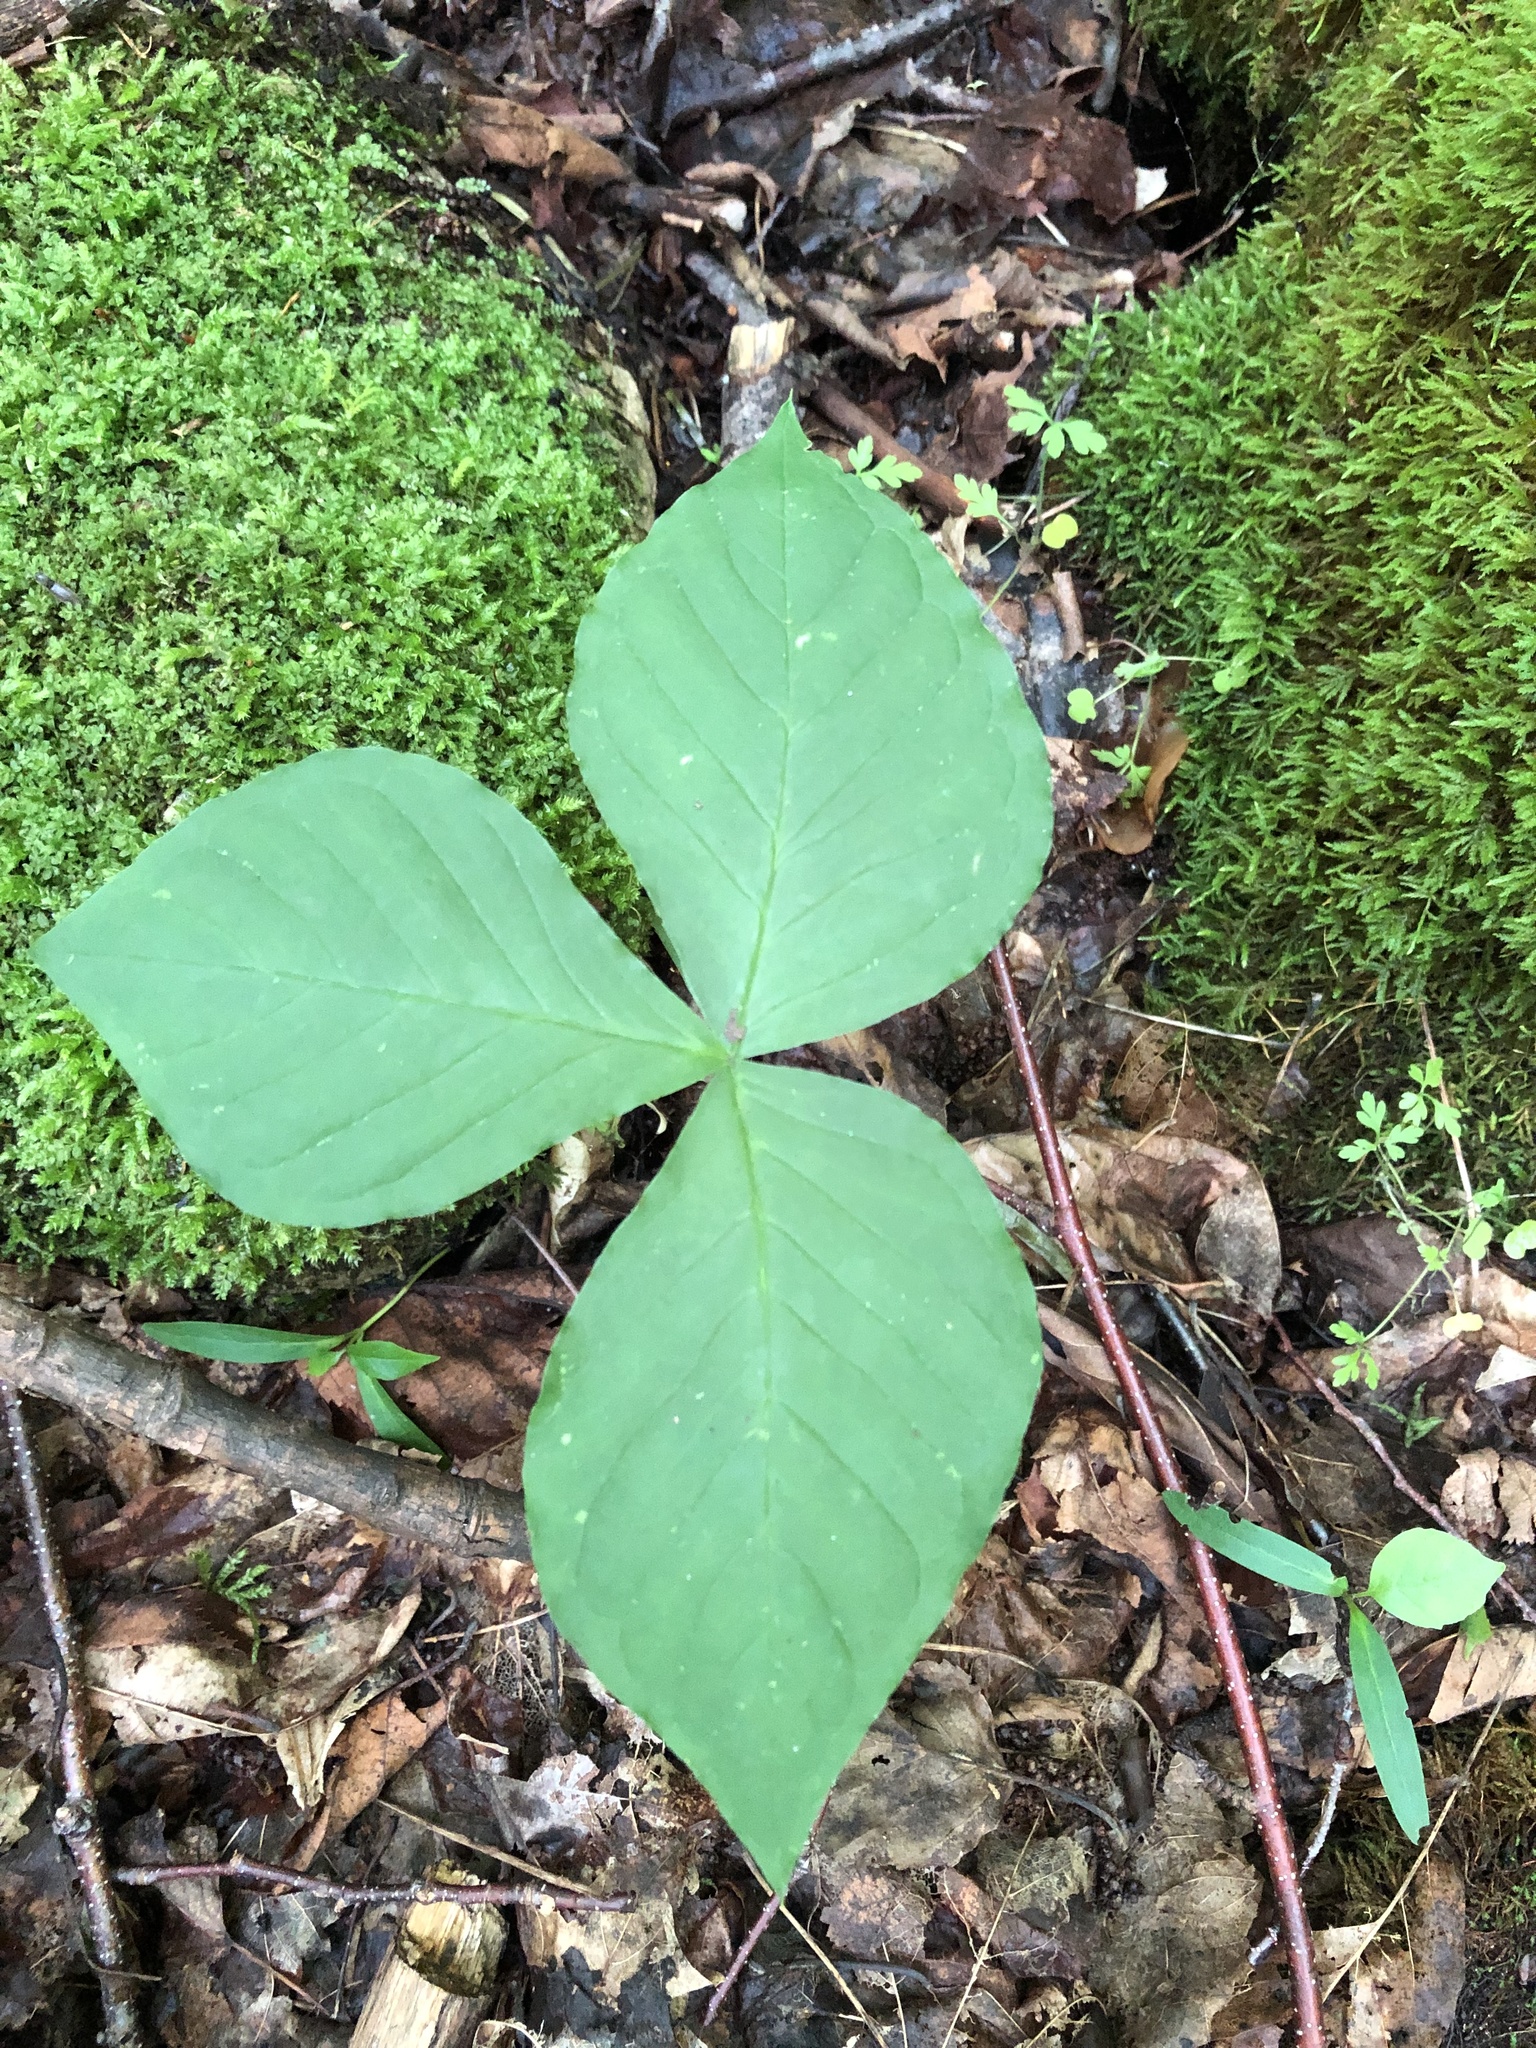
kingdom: Plantae
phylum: Tracheophyta
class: Liliopsida
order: Alismatales
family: Araceae
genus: Arisaema
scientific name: Arisaema triphyllum
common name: Jack-in-the-pulpit
